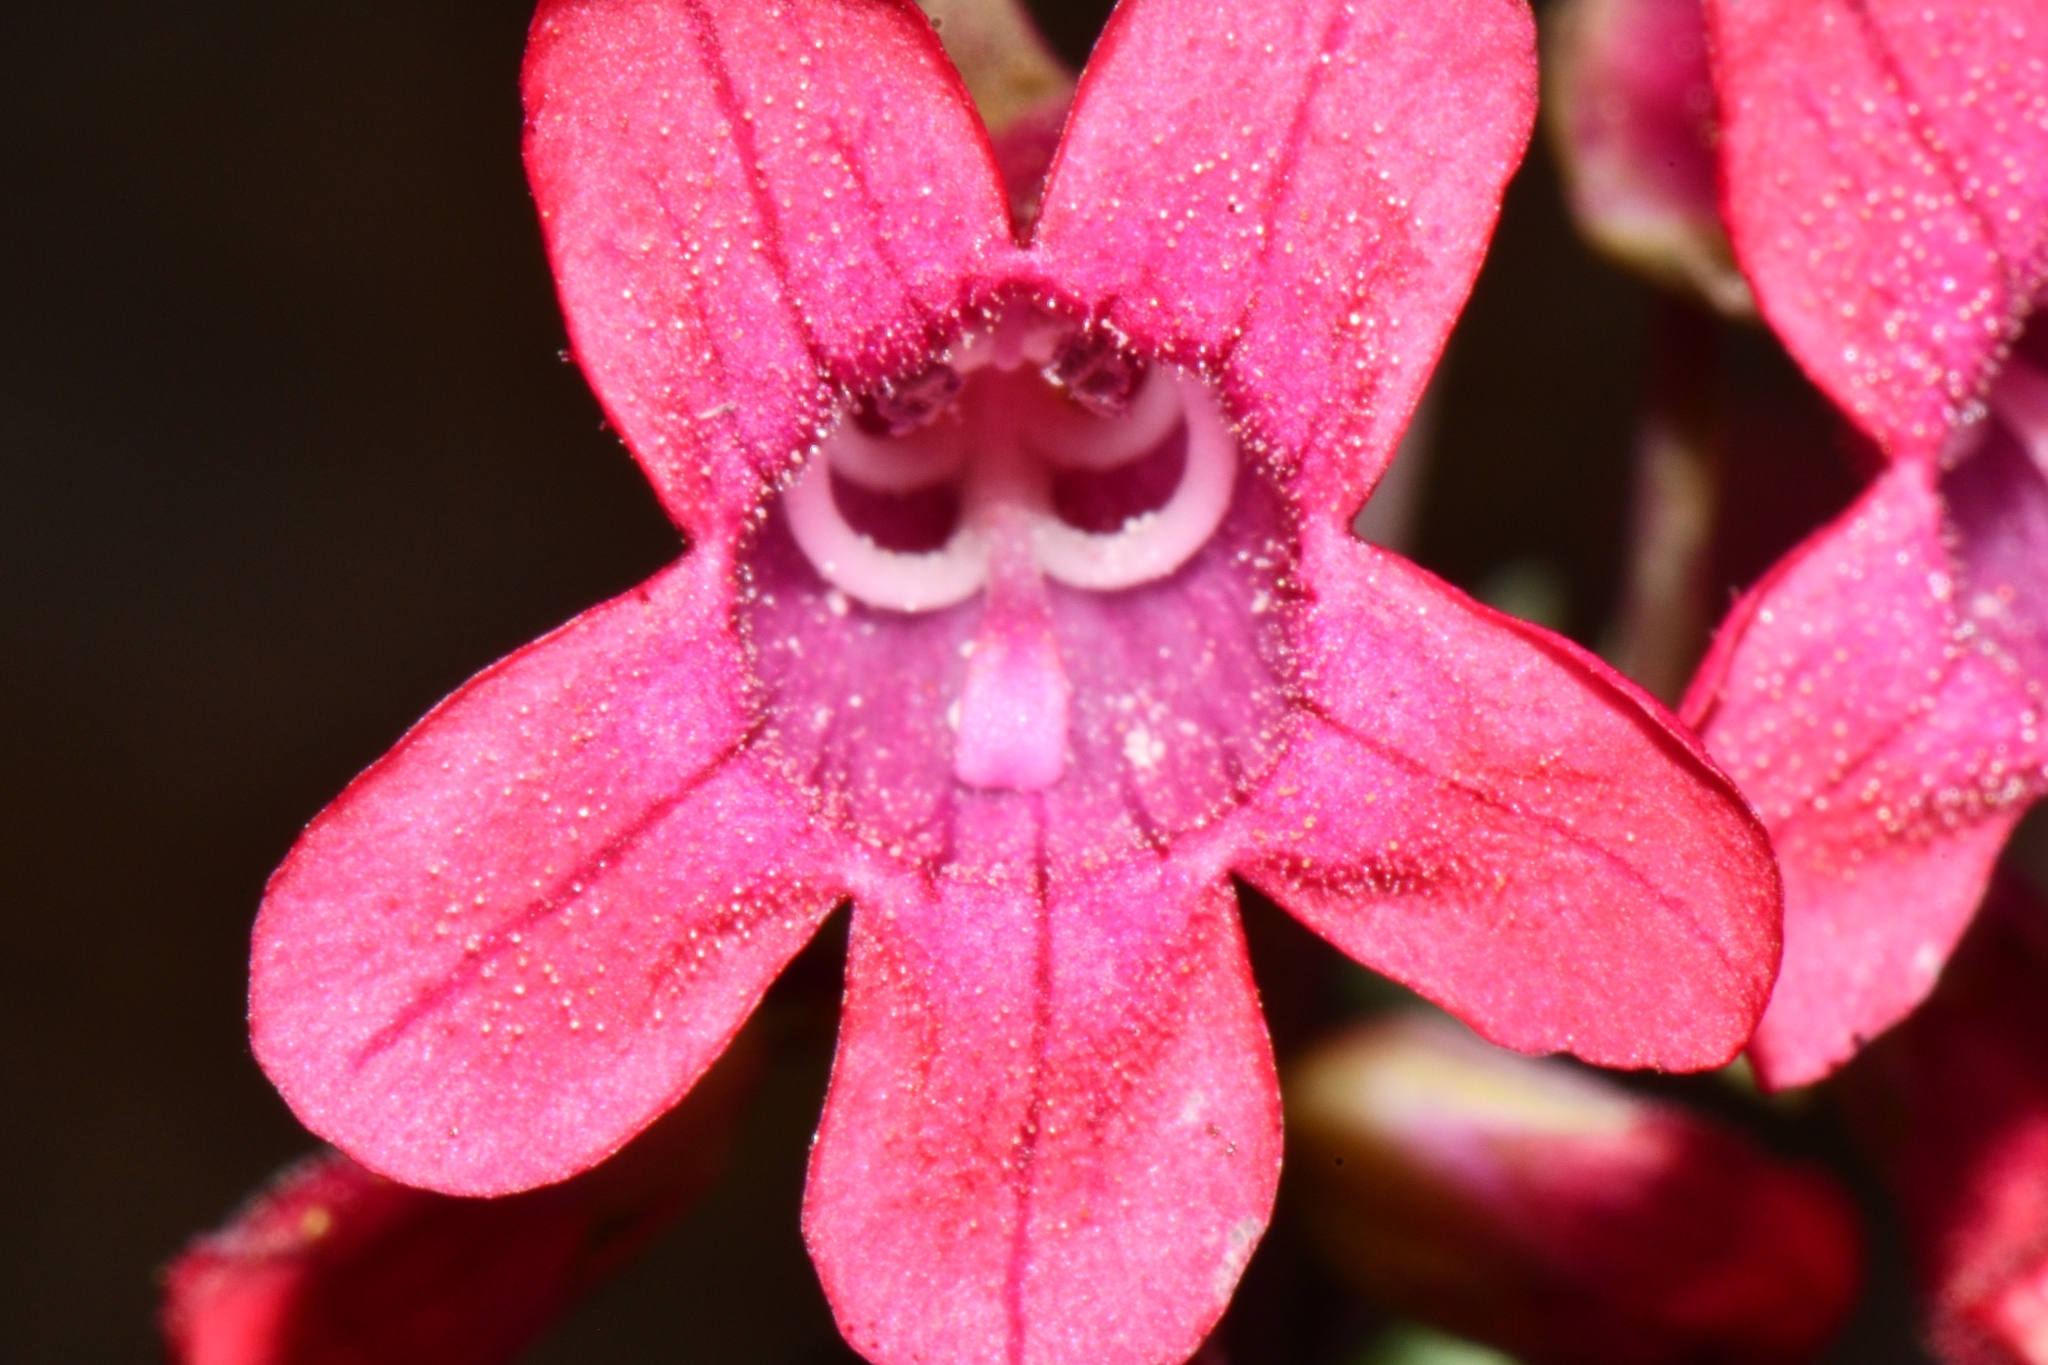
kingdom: Plantae
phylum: Tracheophyta
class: Magnoliopsida
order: Lamiales
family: Plantaginaceae
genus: Penstemon
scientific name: Penstemon confusus
